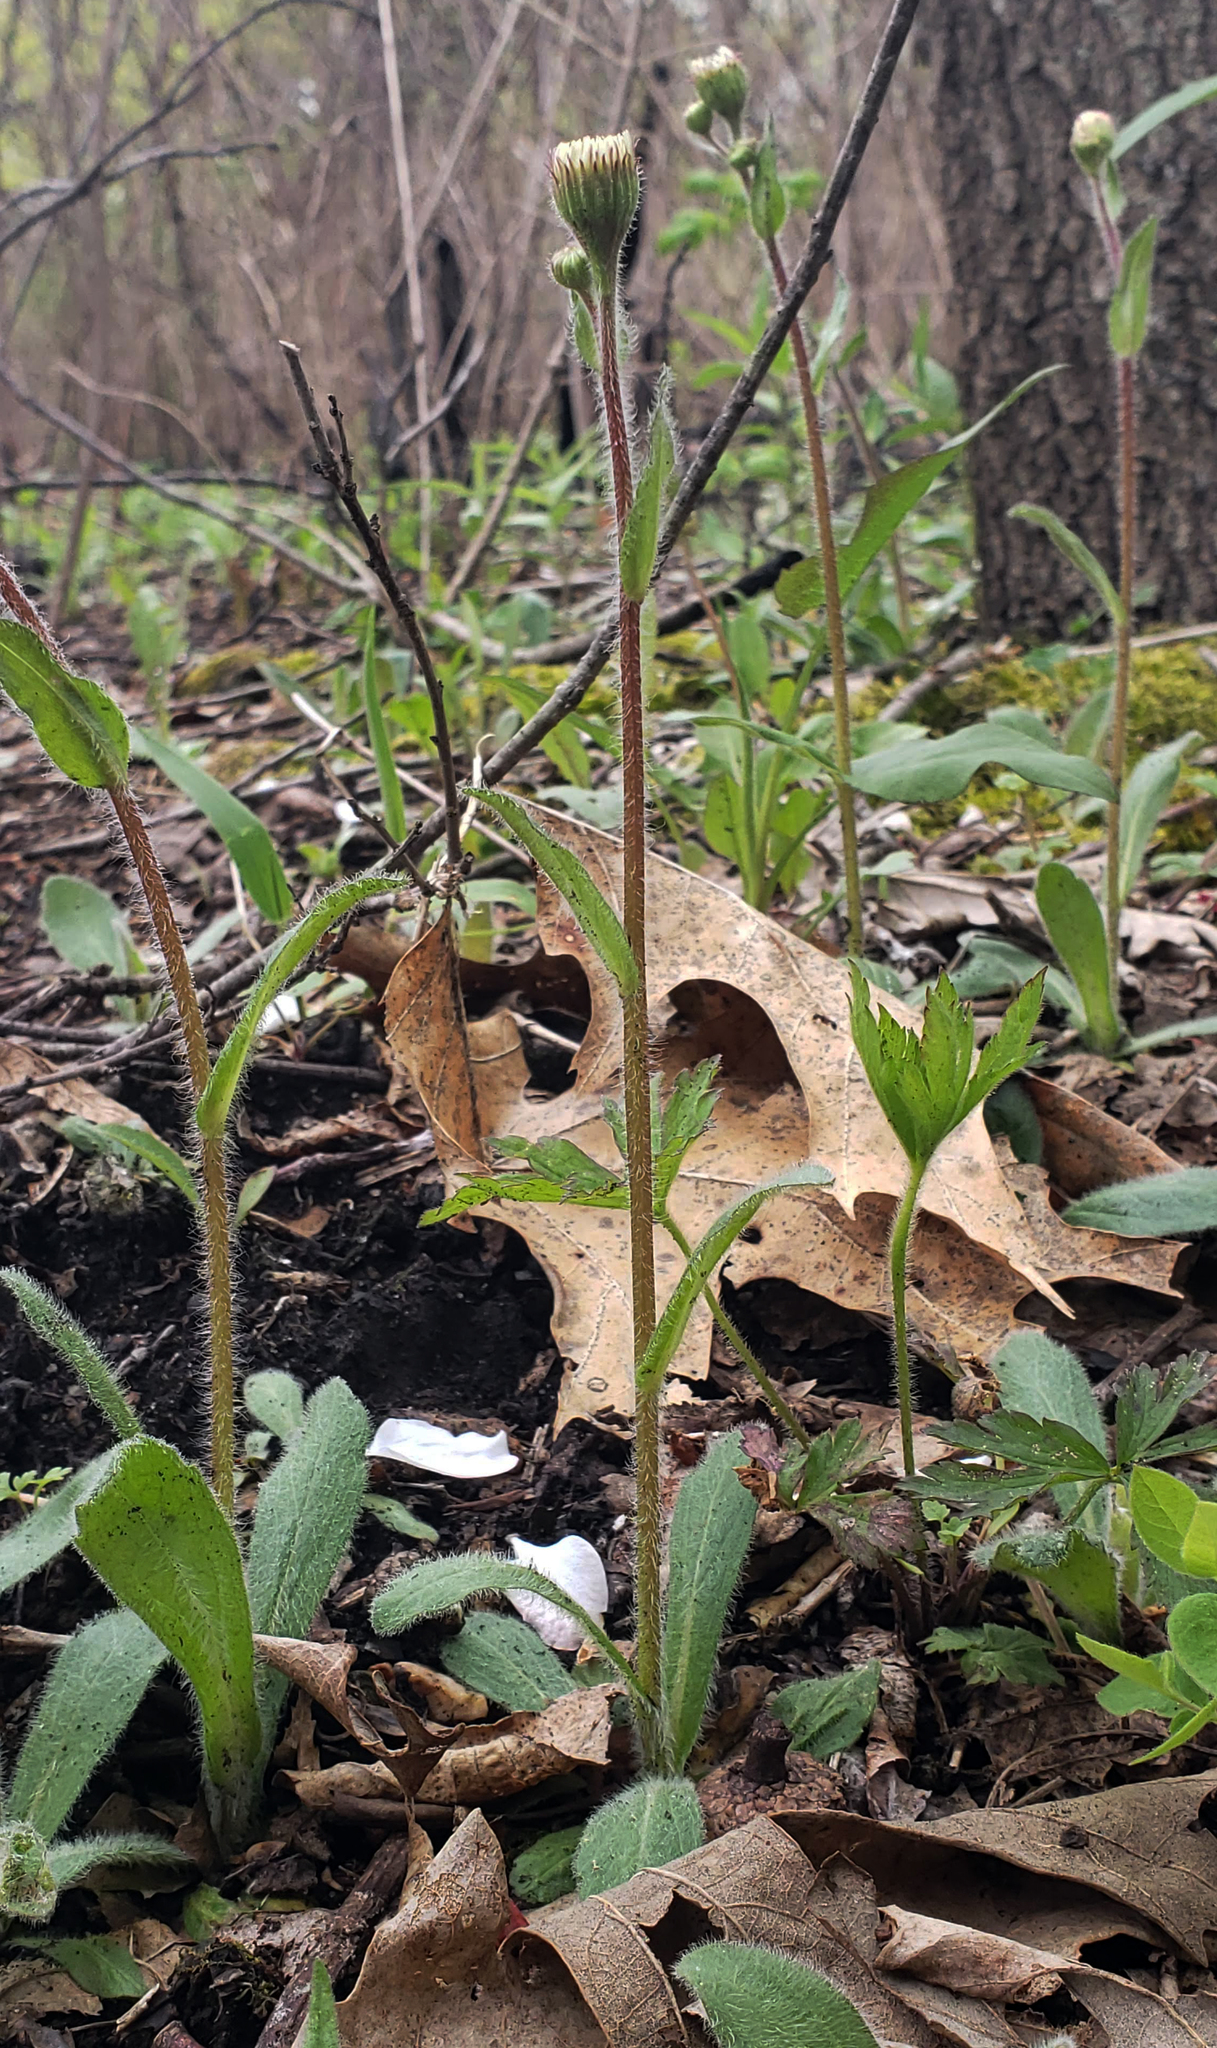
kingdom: Plantae
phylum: Tracheophyta
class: Magnoliopsida
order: Asterales
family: Asteraceae
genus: Erigeron
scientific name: Erigeron pulchellus
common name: Hairy fleabane
